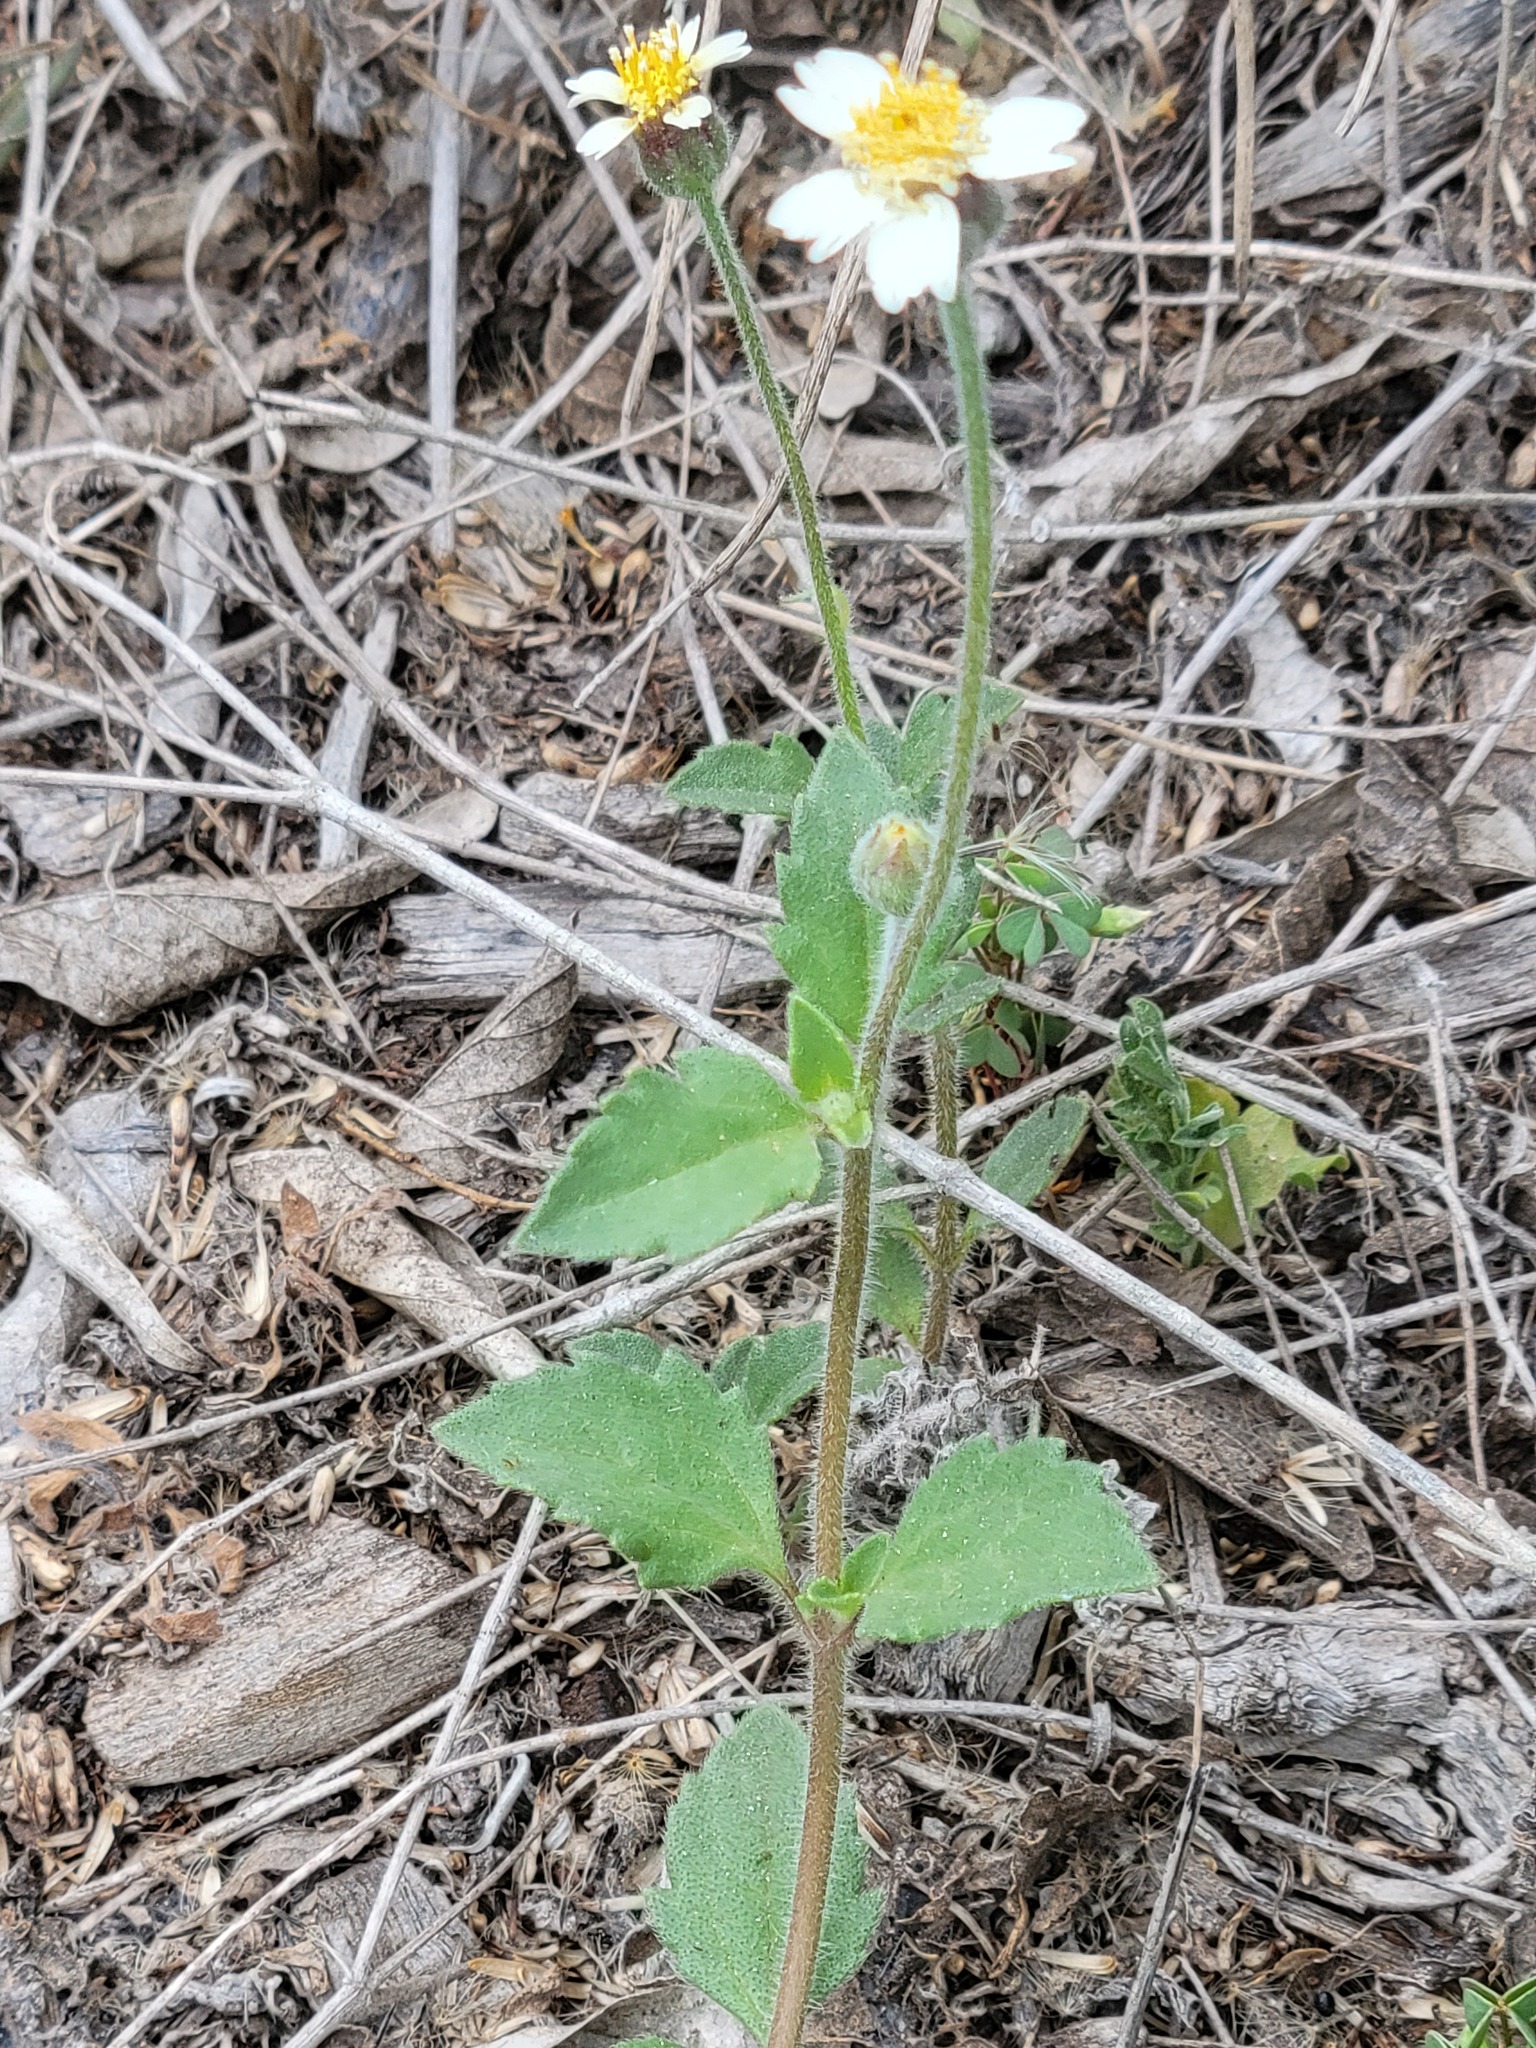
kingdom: Plantae
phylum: Tracheophyta
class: Magnoliopsida
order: Asterales
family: Asteraceae
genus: Tridax
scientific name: Tridax procumbens
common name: Coatbuttons
